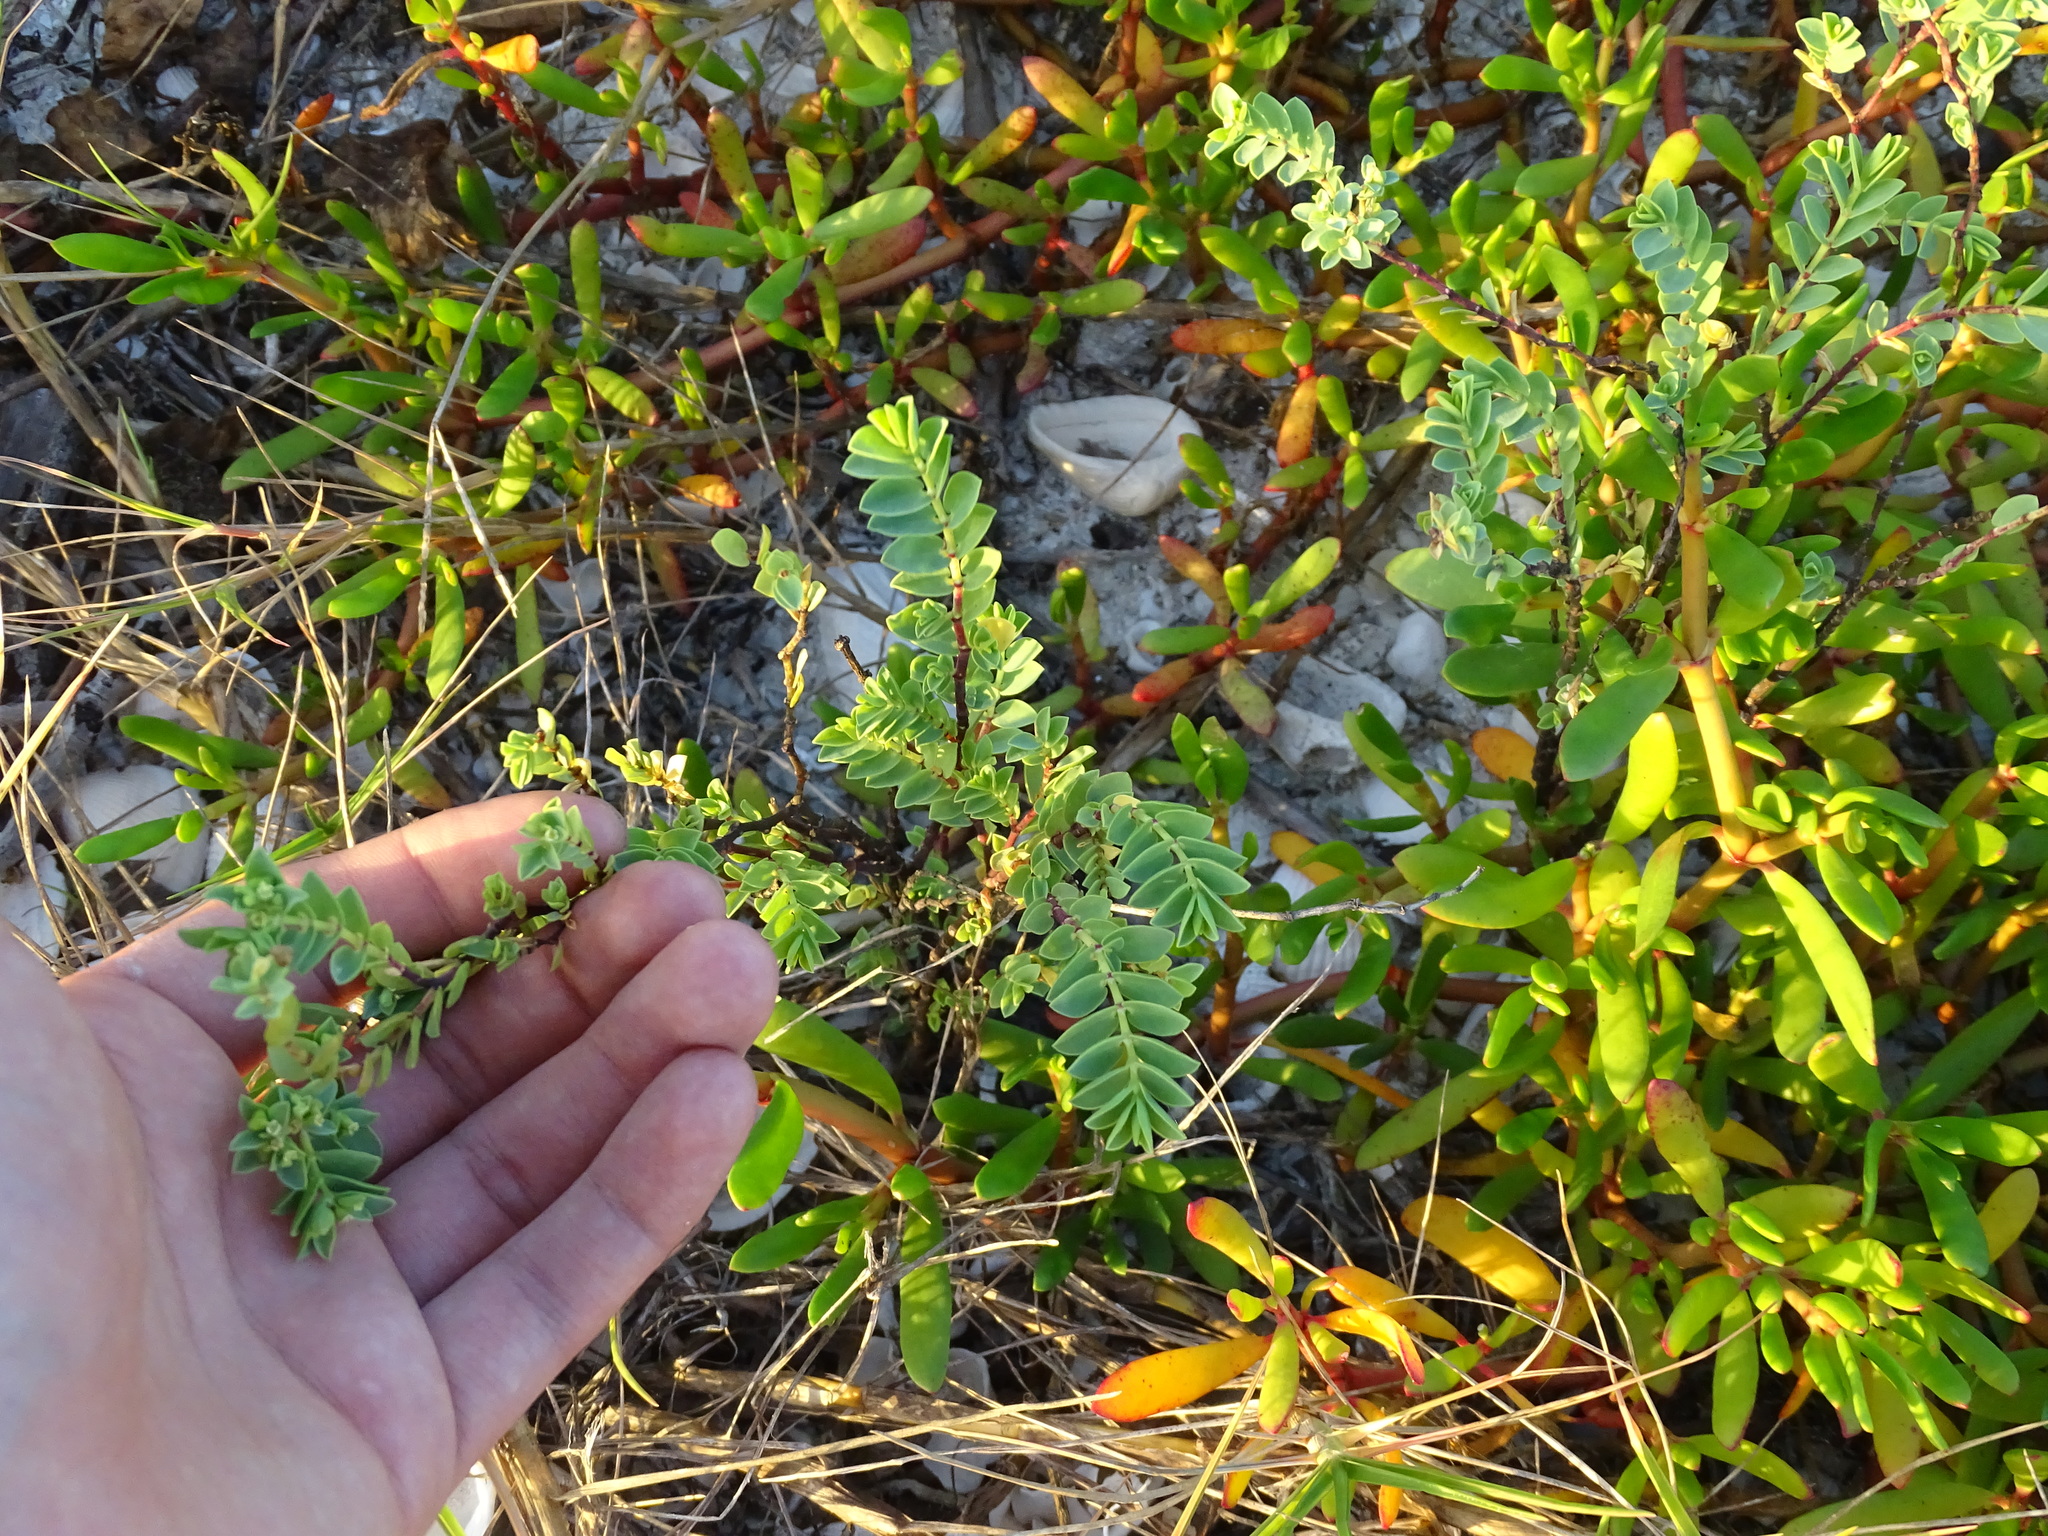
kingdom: Plantae
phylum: Tracheophyta
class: Magnoliopsida
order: Malpighiales
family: Euphorbiaceae
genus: Euphorbia
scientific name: Euphorbia mesembryanthemifolia
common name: Coastal beach sandmat
